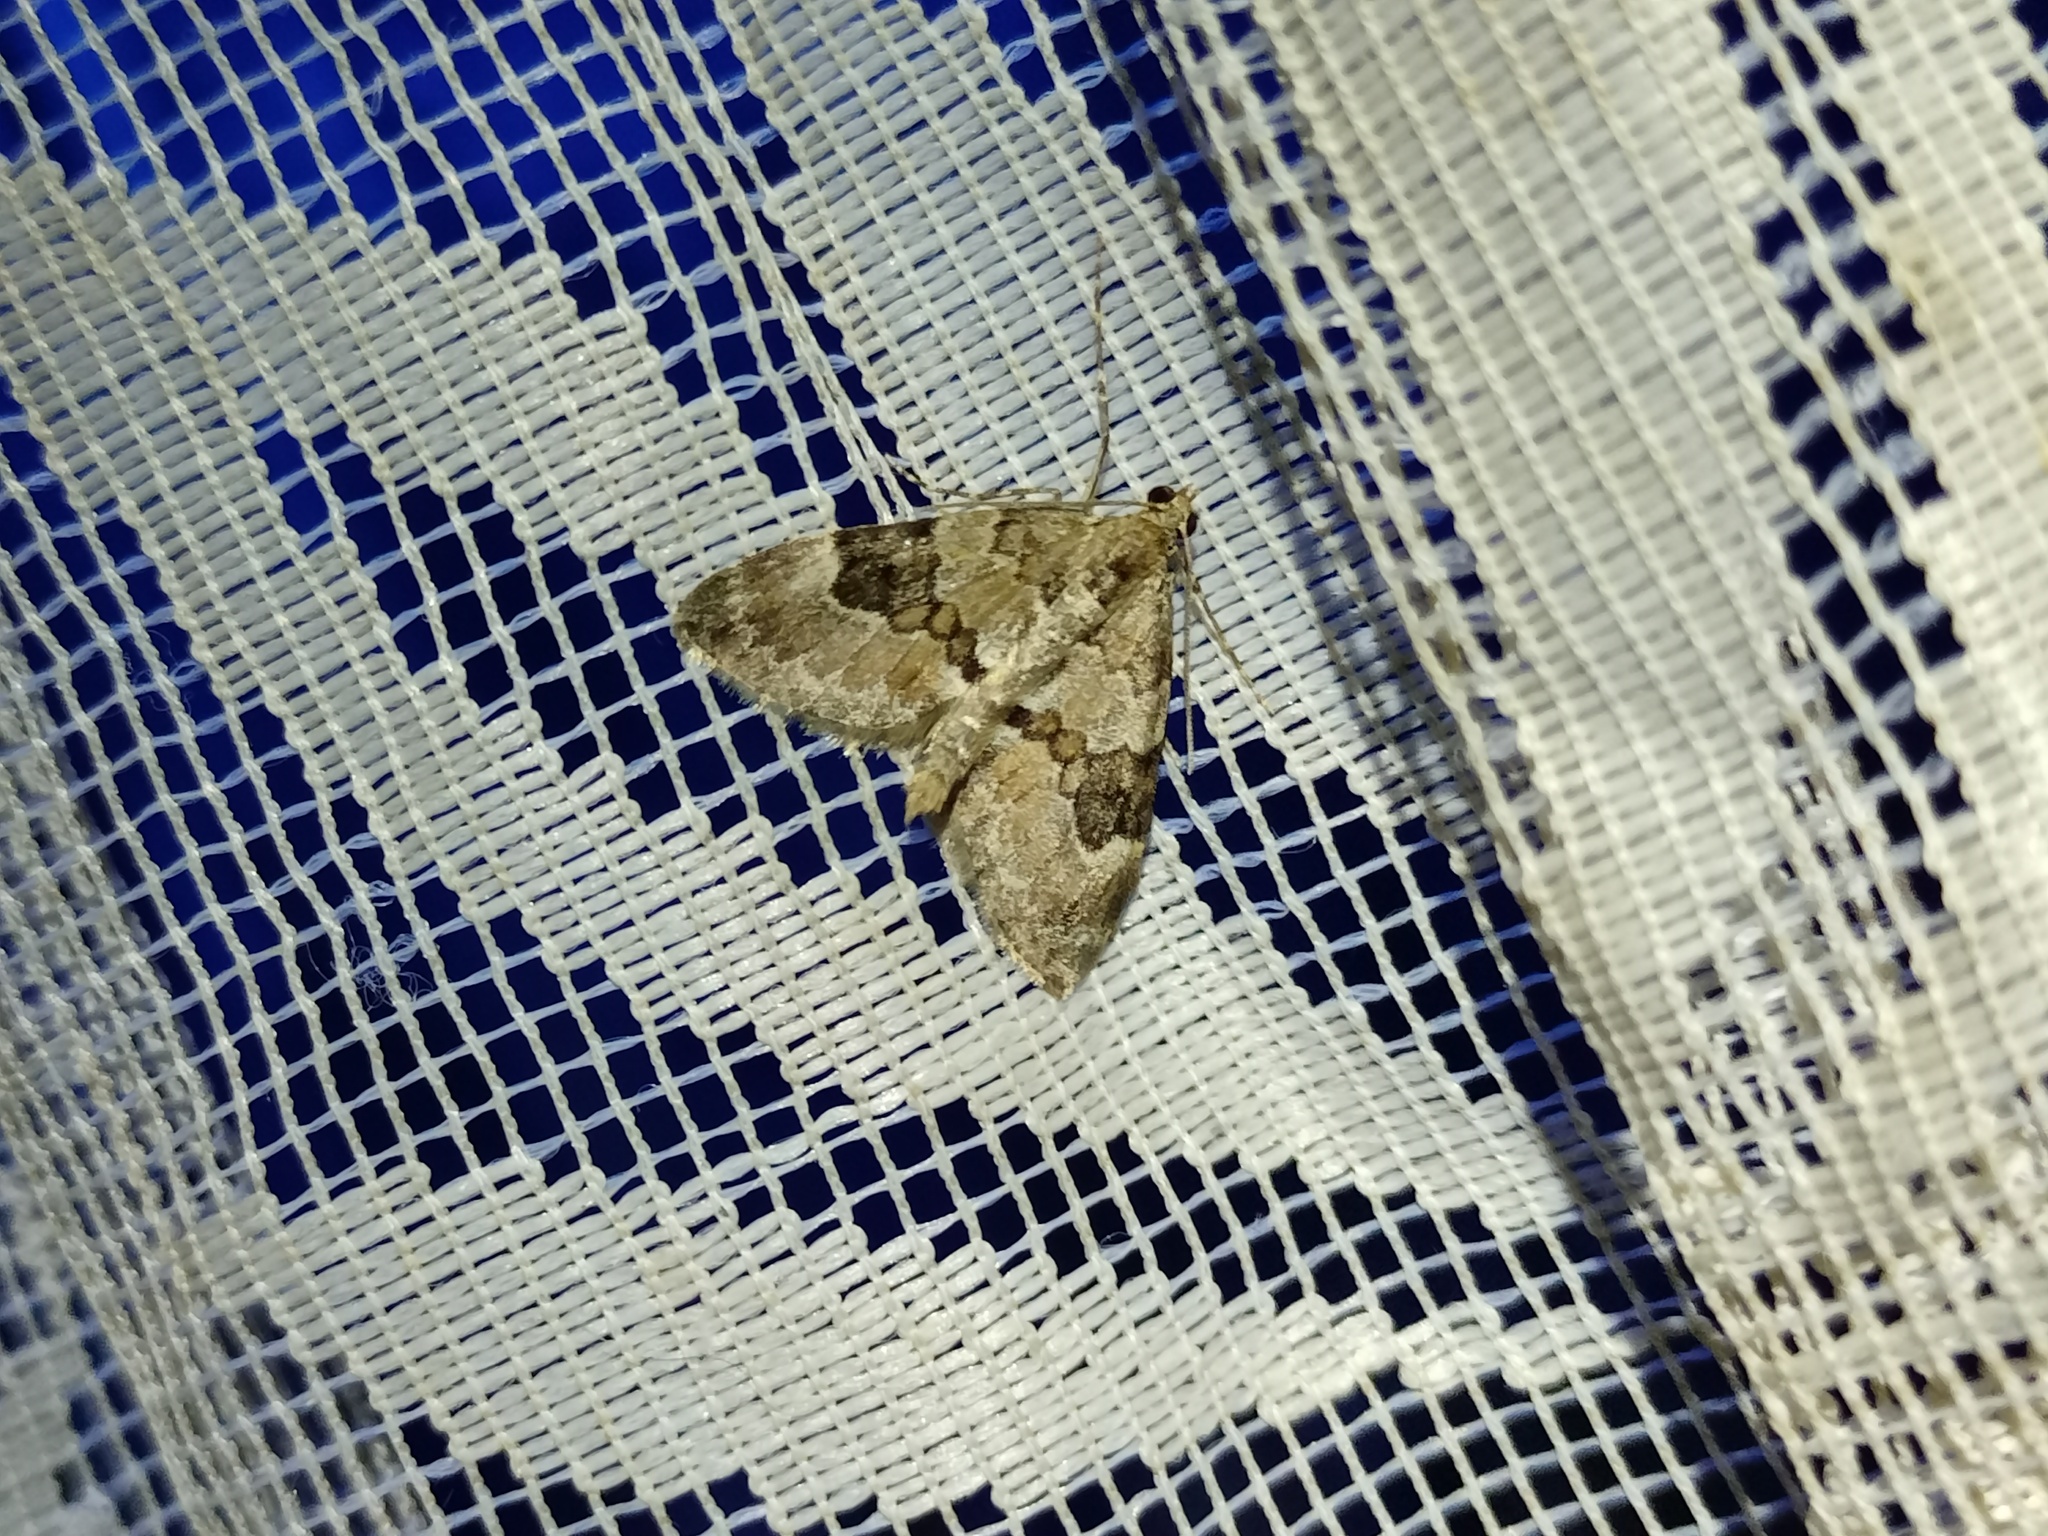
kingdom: Animalia
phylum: Arthropoda
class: Insecta
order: Lepidoptera
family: Geometridae
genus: Thera
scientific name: Thera obeliscata
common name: Grey pine carpet
